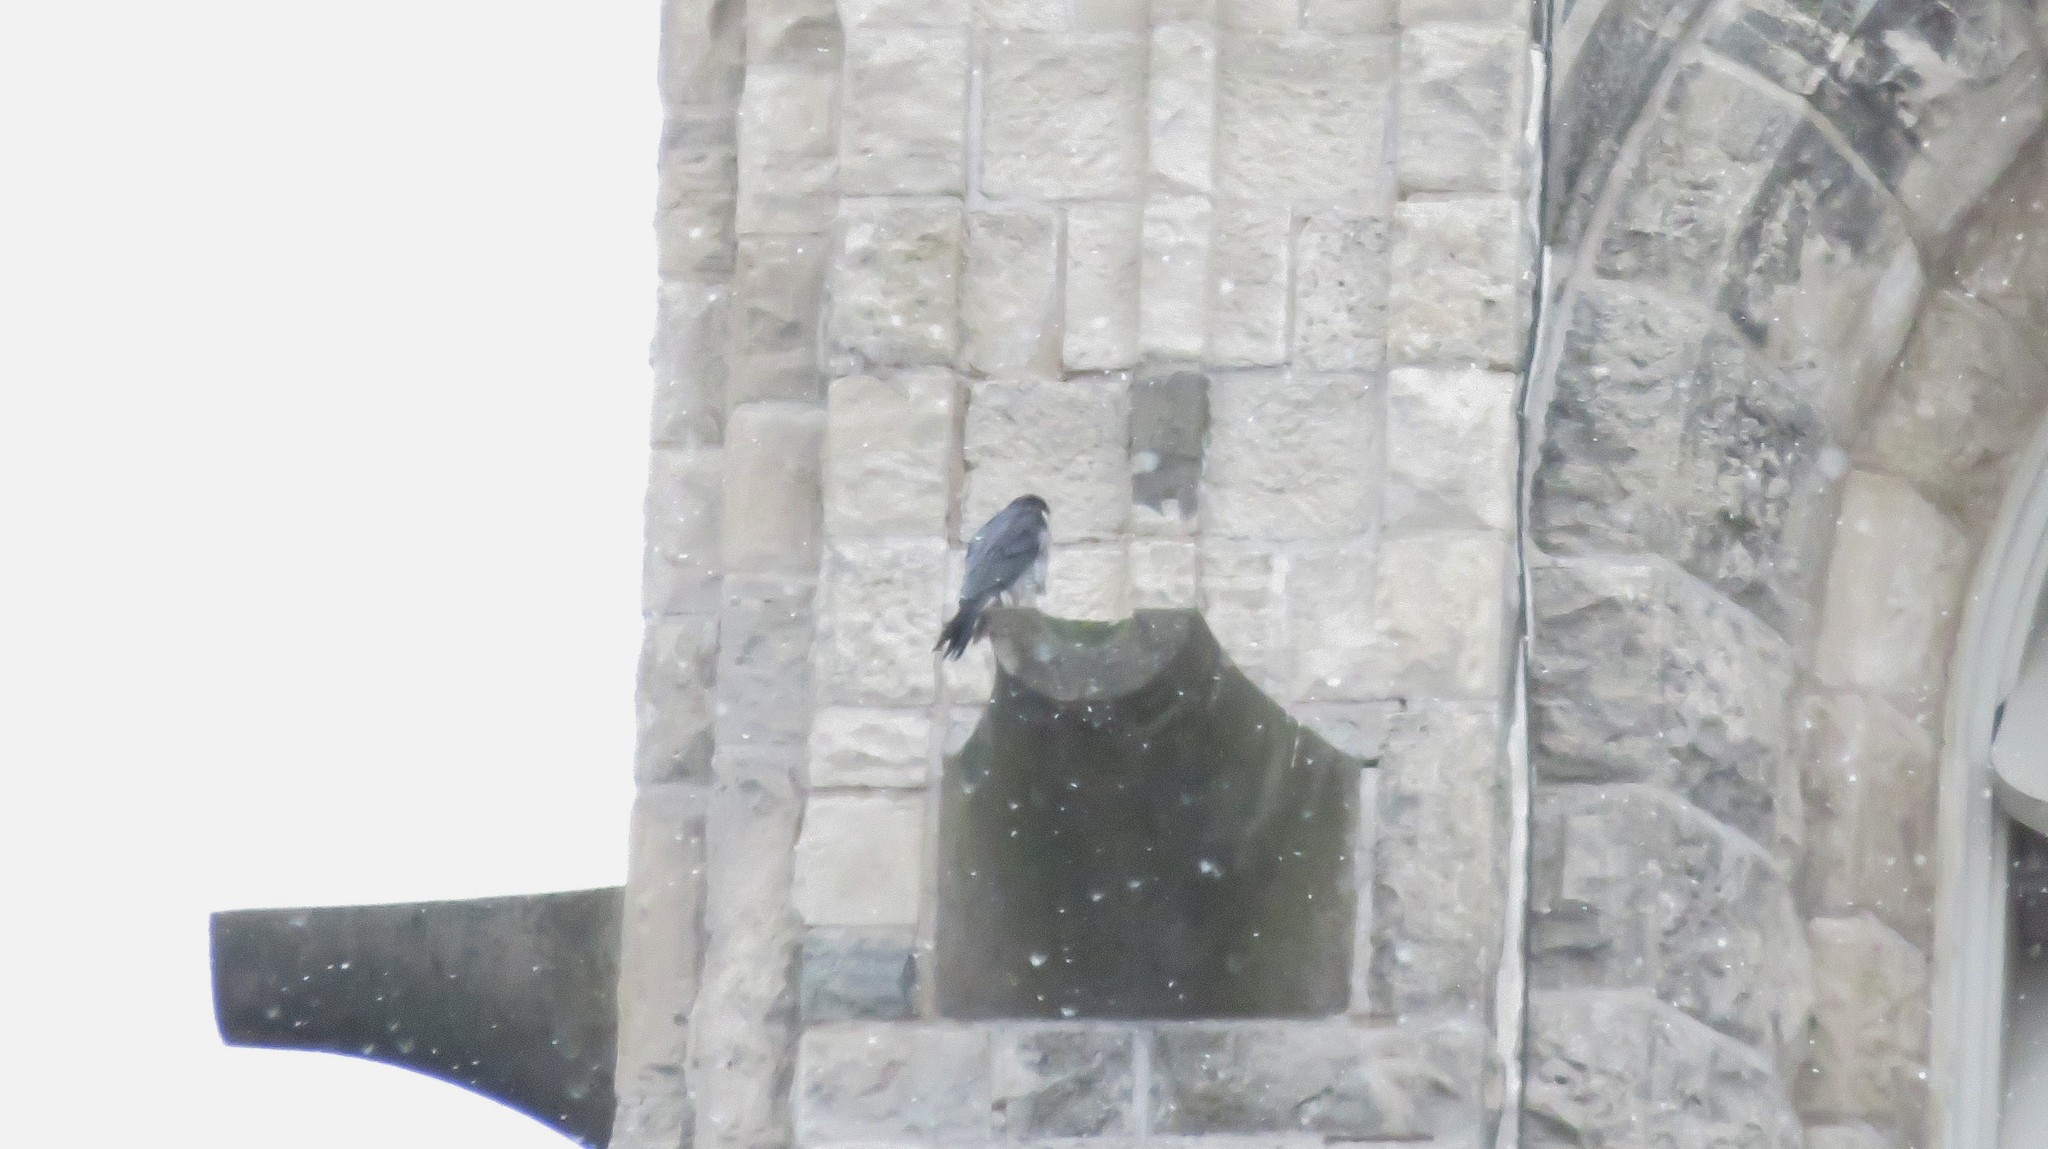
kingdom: Animalia
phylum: Chordata
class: Aves
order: Falconiformes
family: Falconidae
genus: Falco
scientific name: Falco peregrinus
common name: Peregrine falcon
